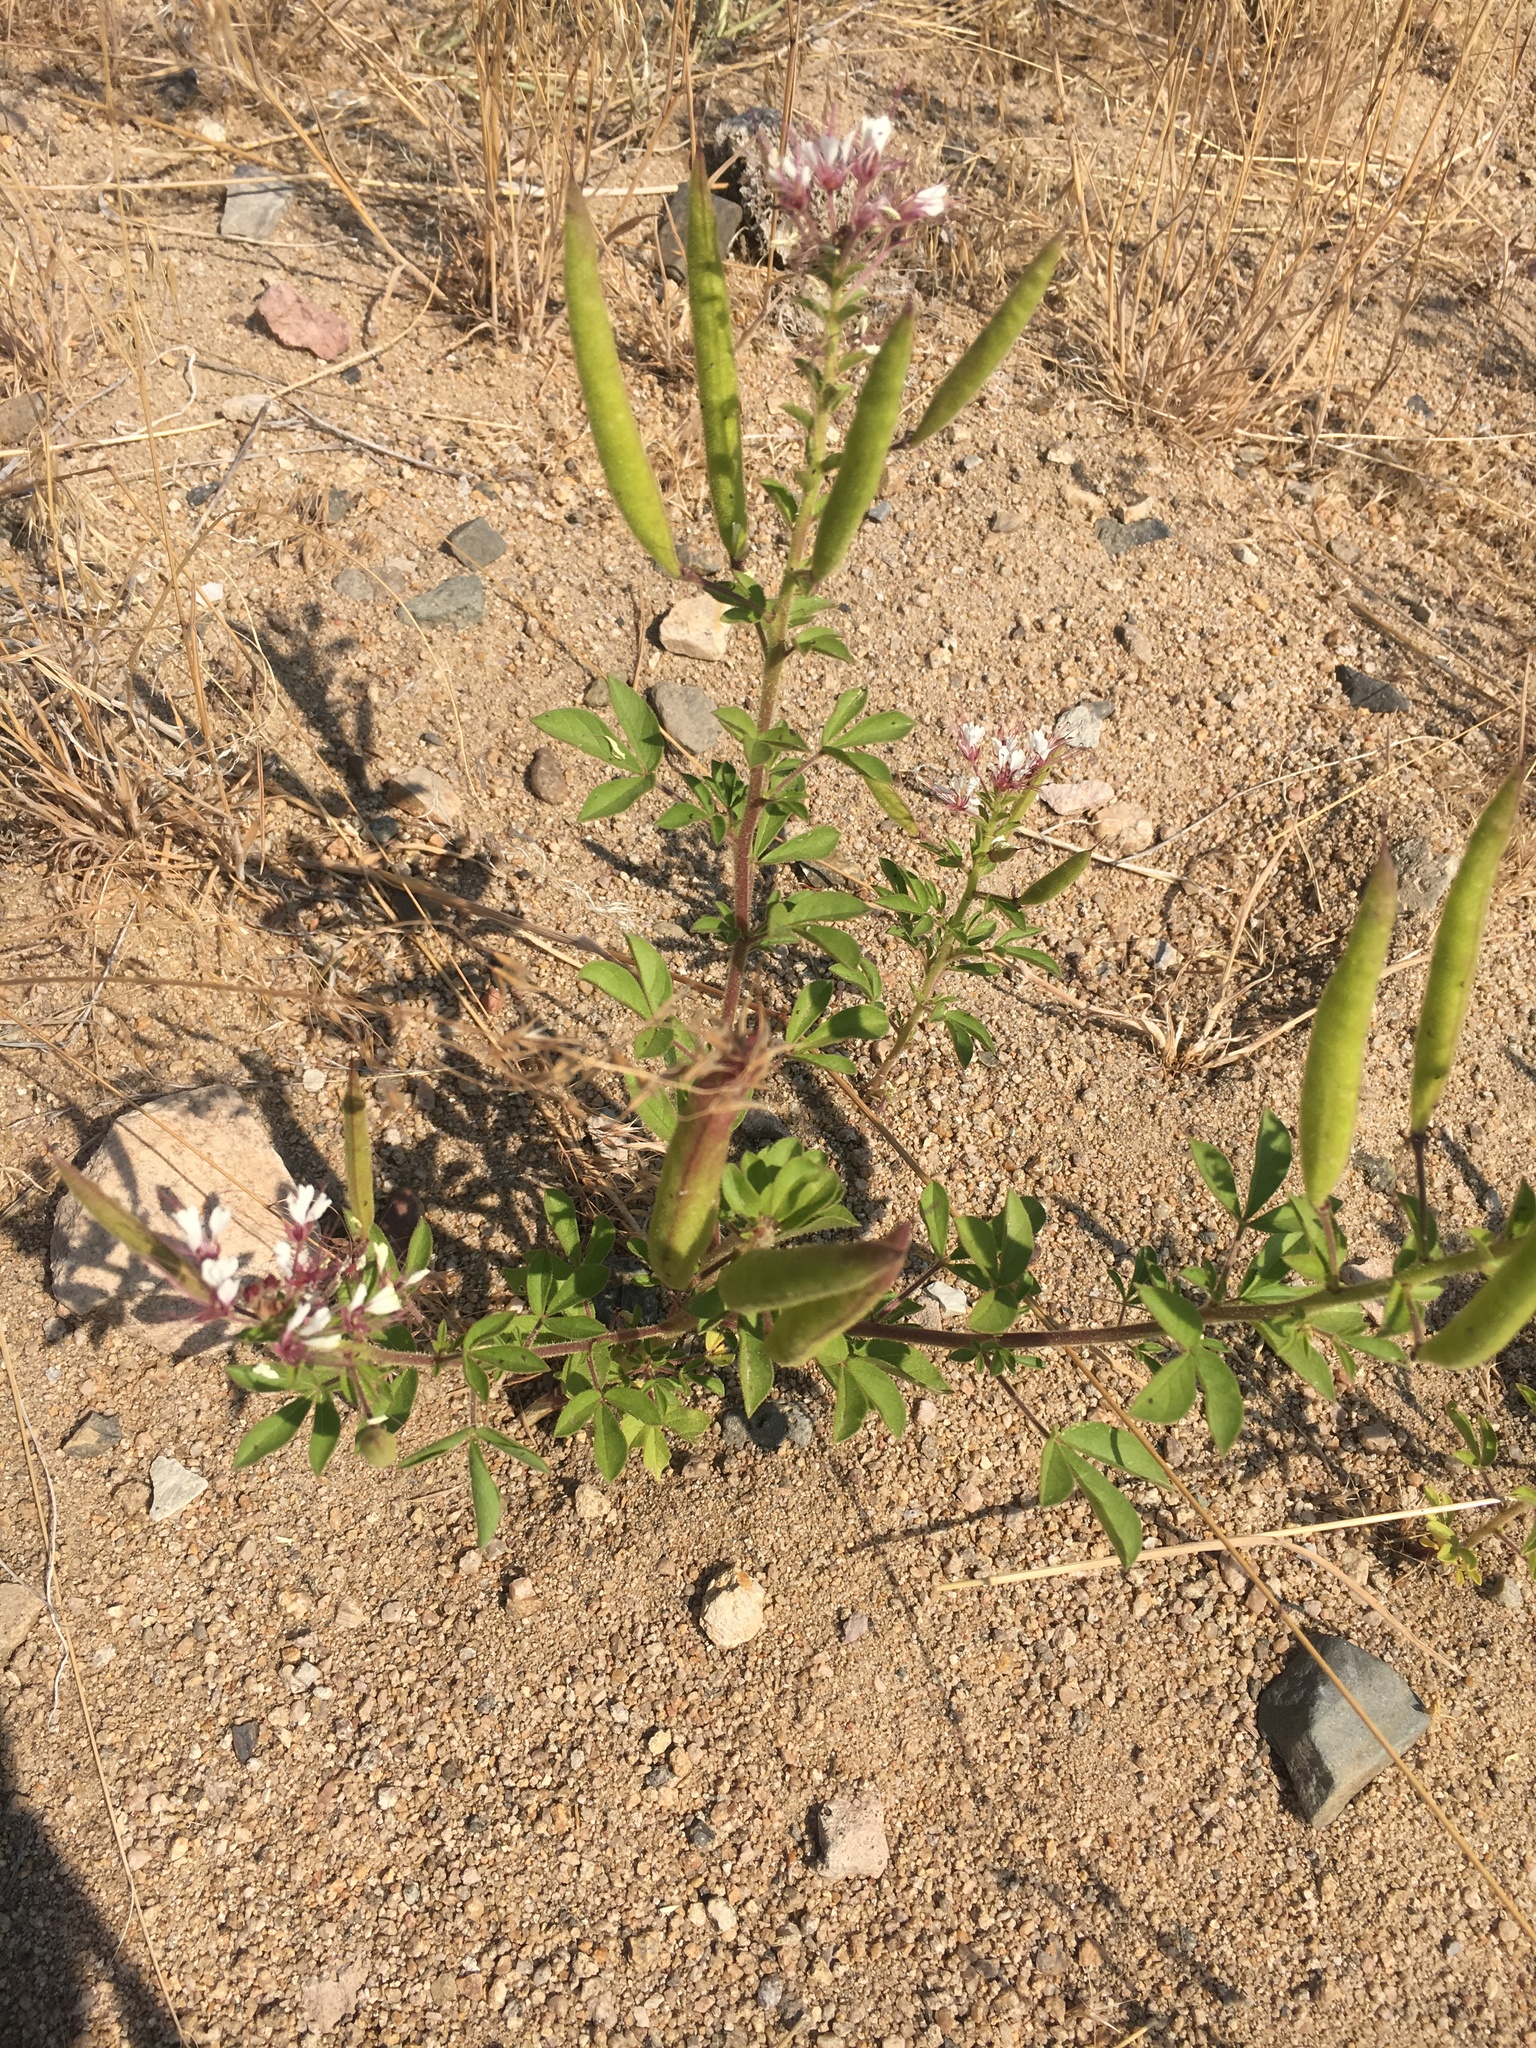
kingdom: Plantae
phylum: Tracheophyta
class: Magnoliopsida
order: Brassicales
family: Cleomaceae
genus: Polanisia
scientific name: Polanisia dodecandra
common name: Clammyweed
